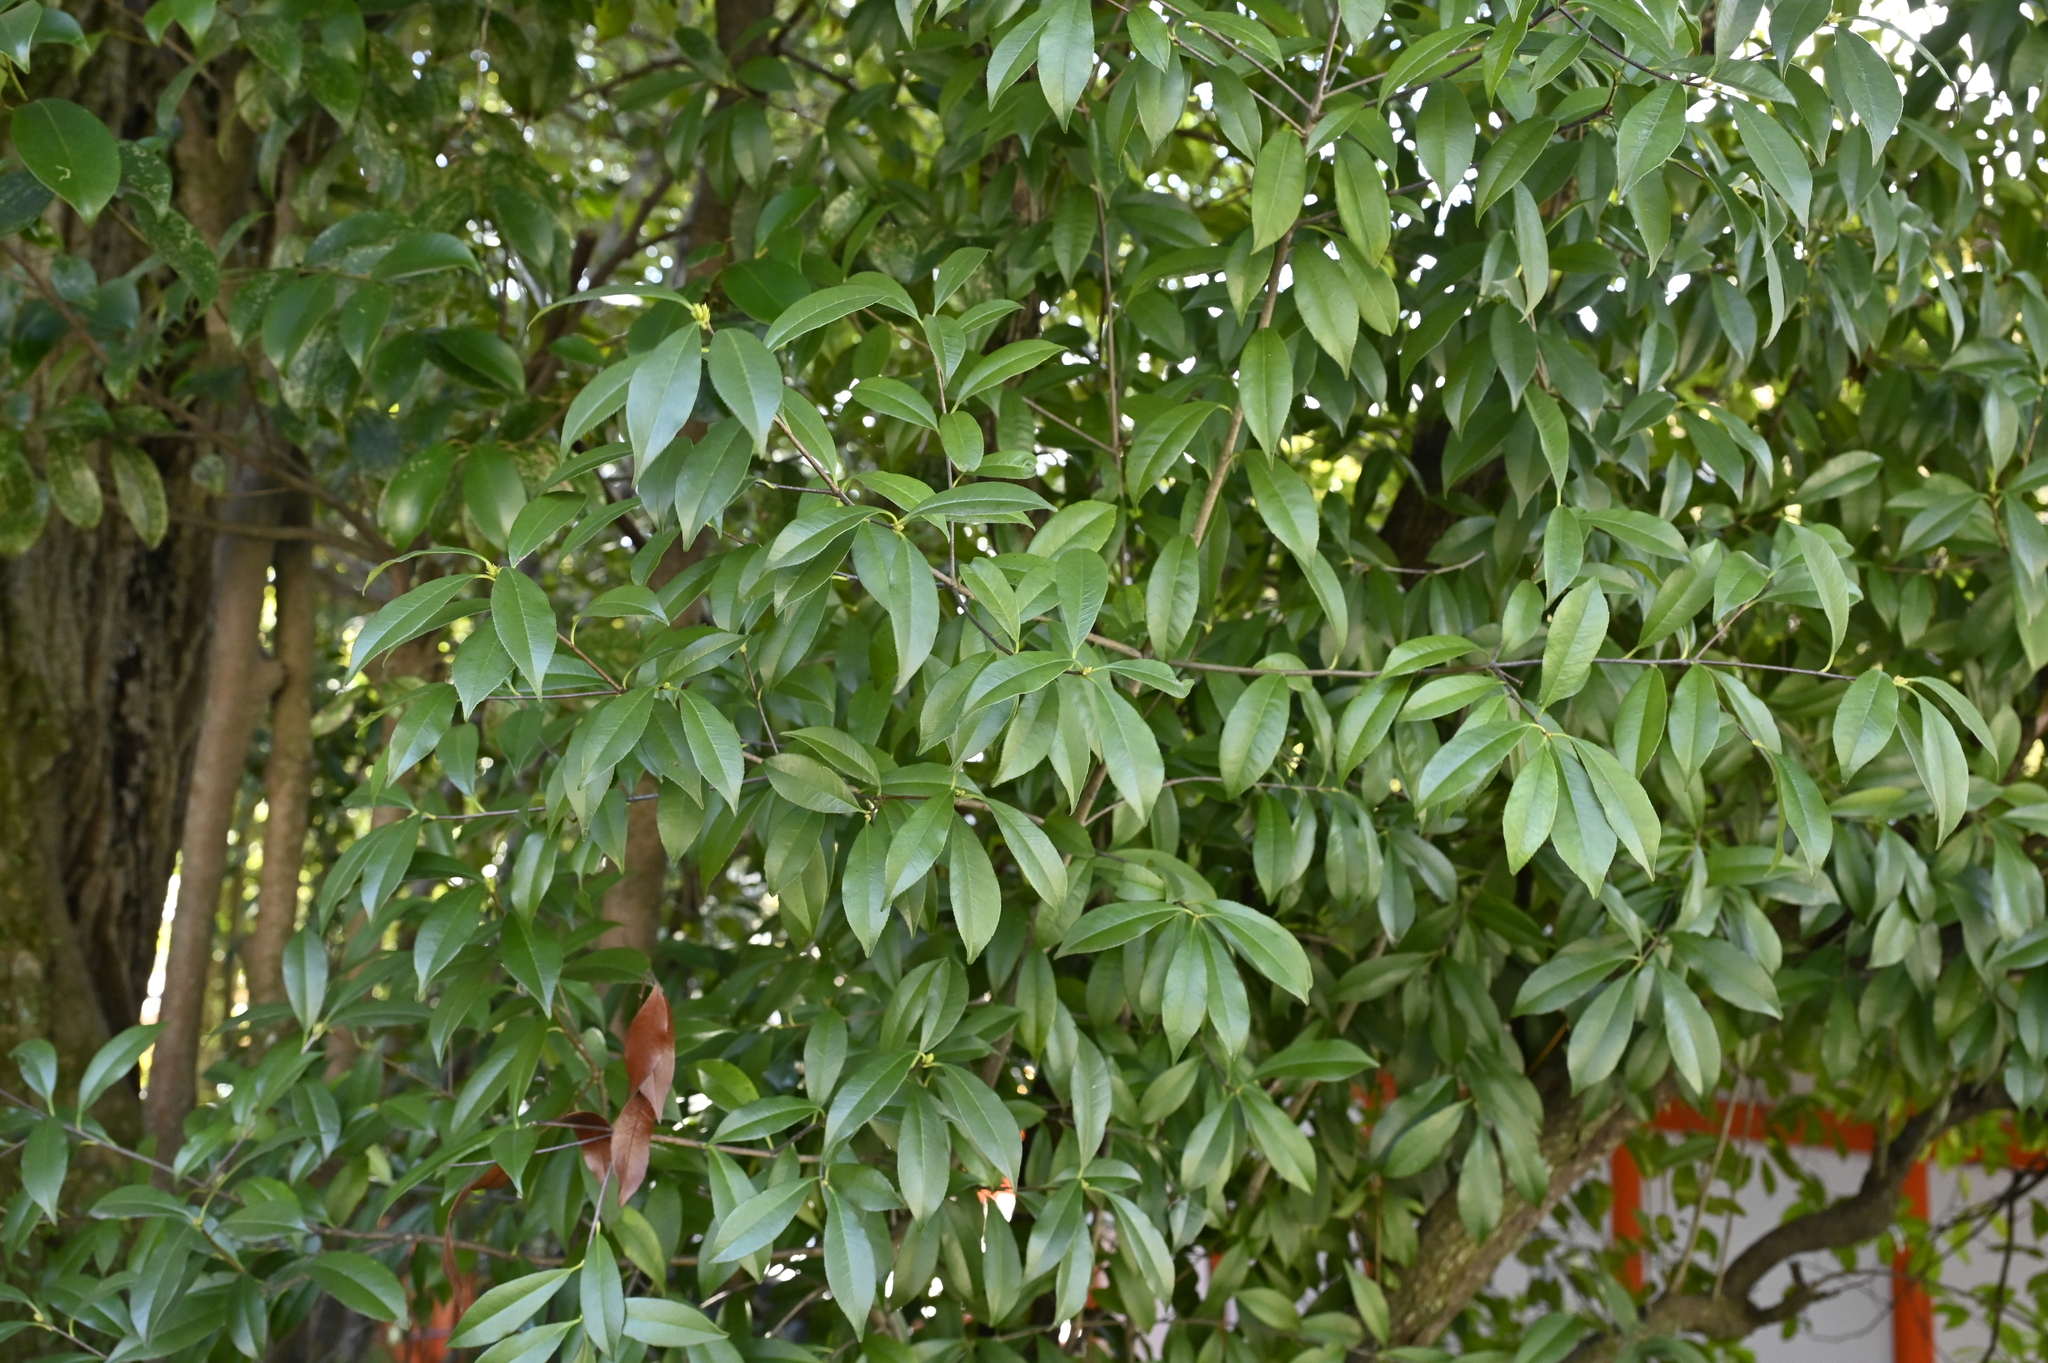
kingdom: Plantae
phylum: Tracheophyta
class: Magnoliopsida
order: Rosales
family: Rosaceae
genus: Photinia
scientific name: Photinia glabra
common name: Japanese photinia
